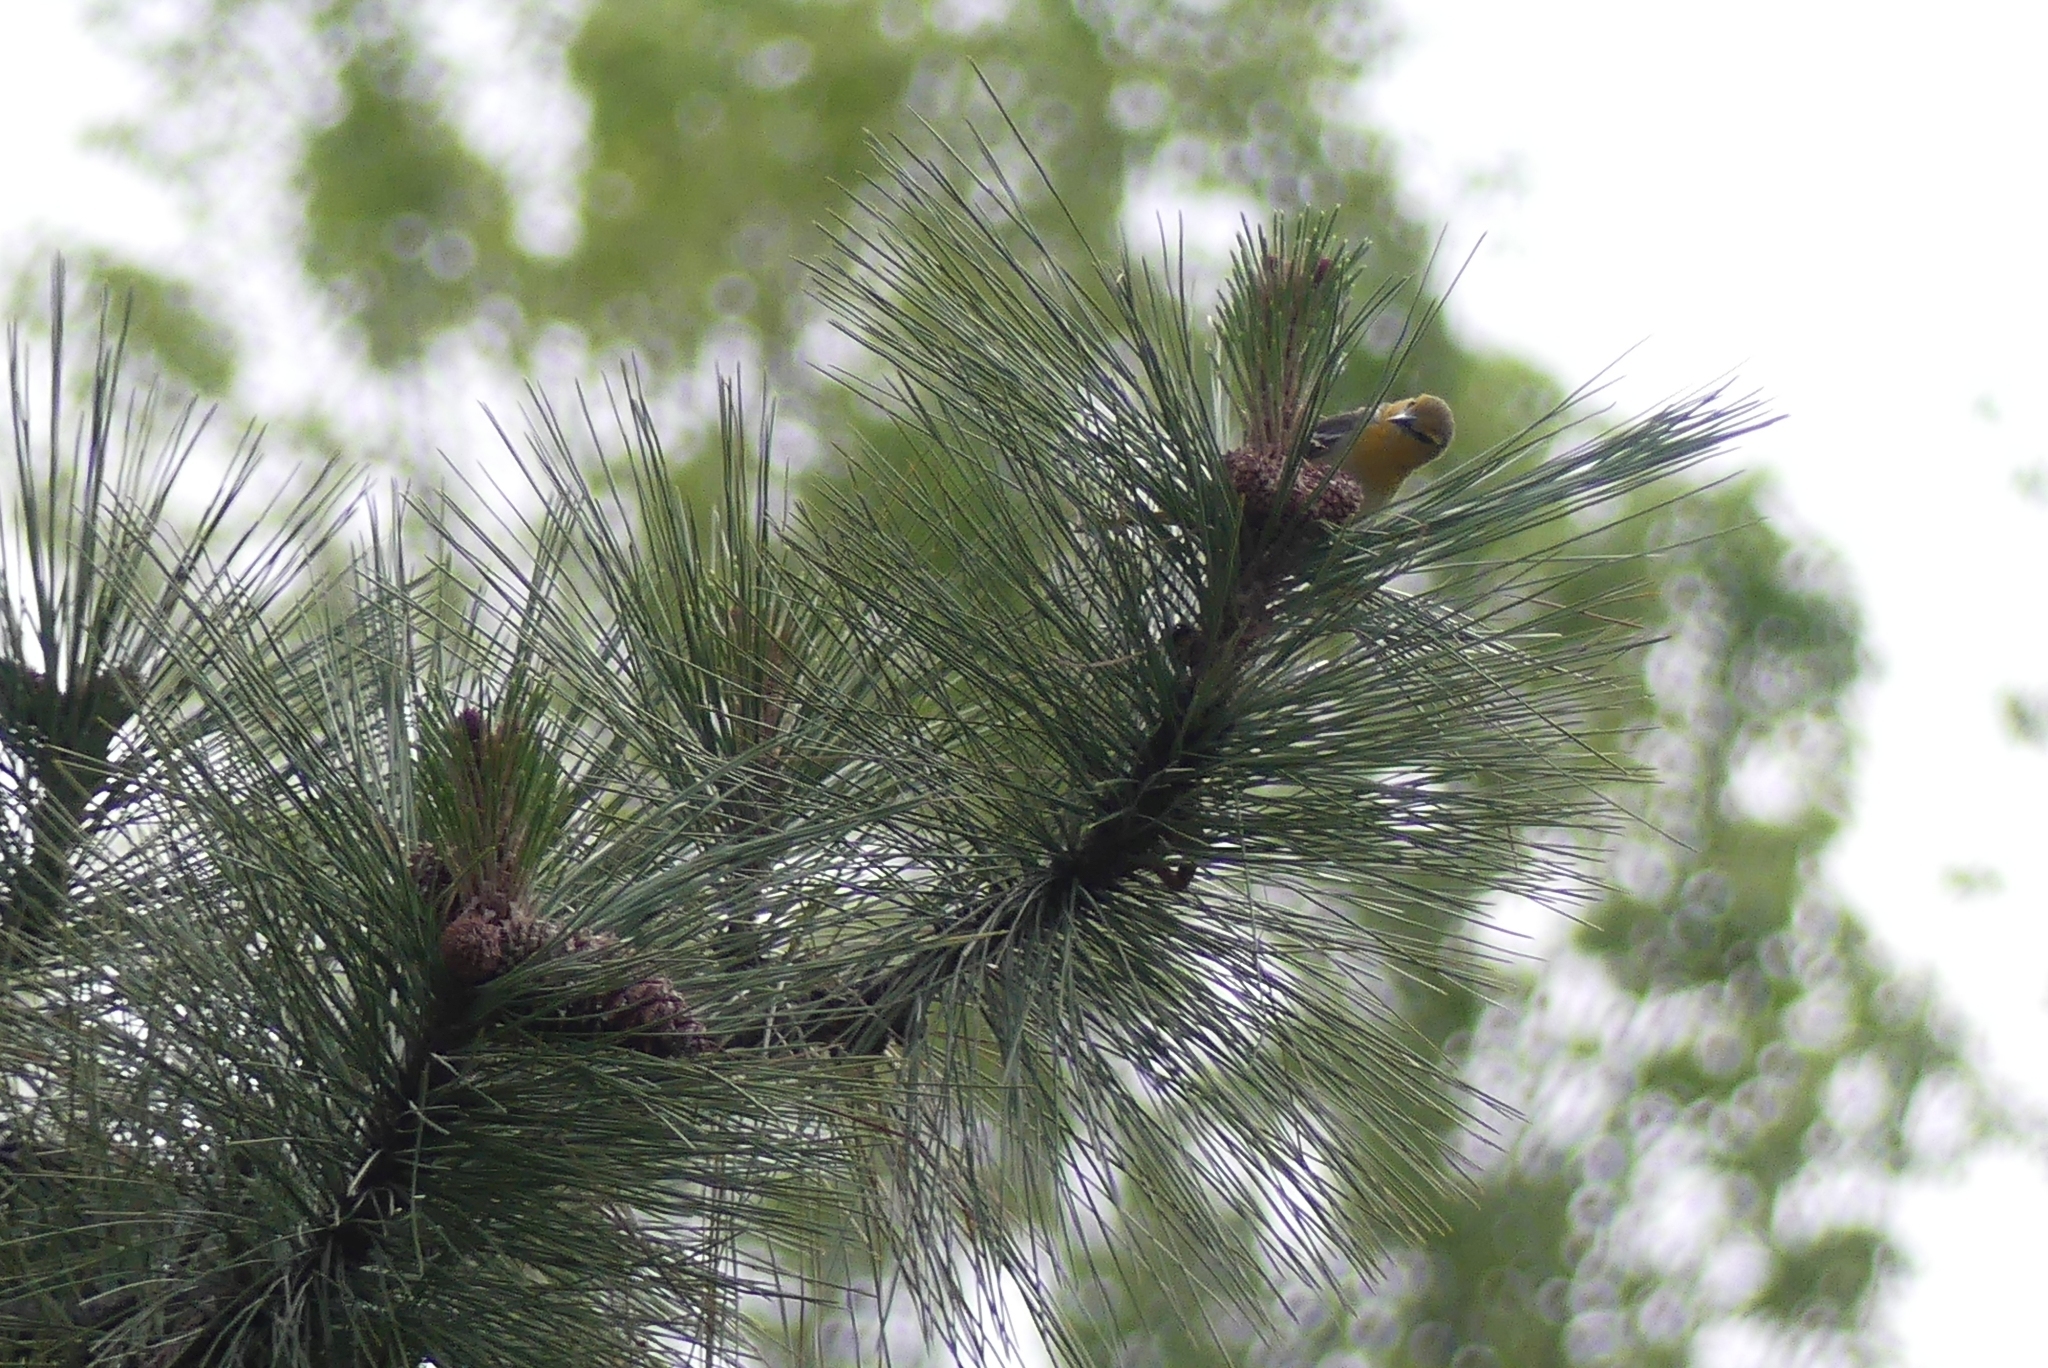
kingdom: Animalia
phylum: Chordata
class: Aves
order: Passeriformes
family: Icteridae
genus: Icterus
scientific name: Icterus bullockii
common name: Bullock's oriole
